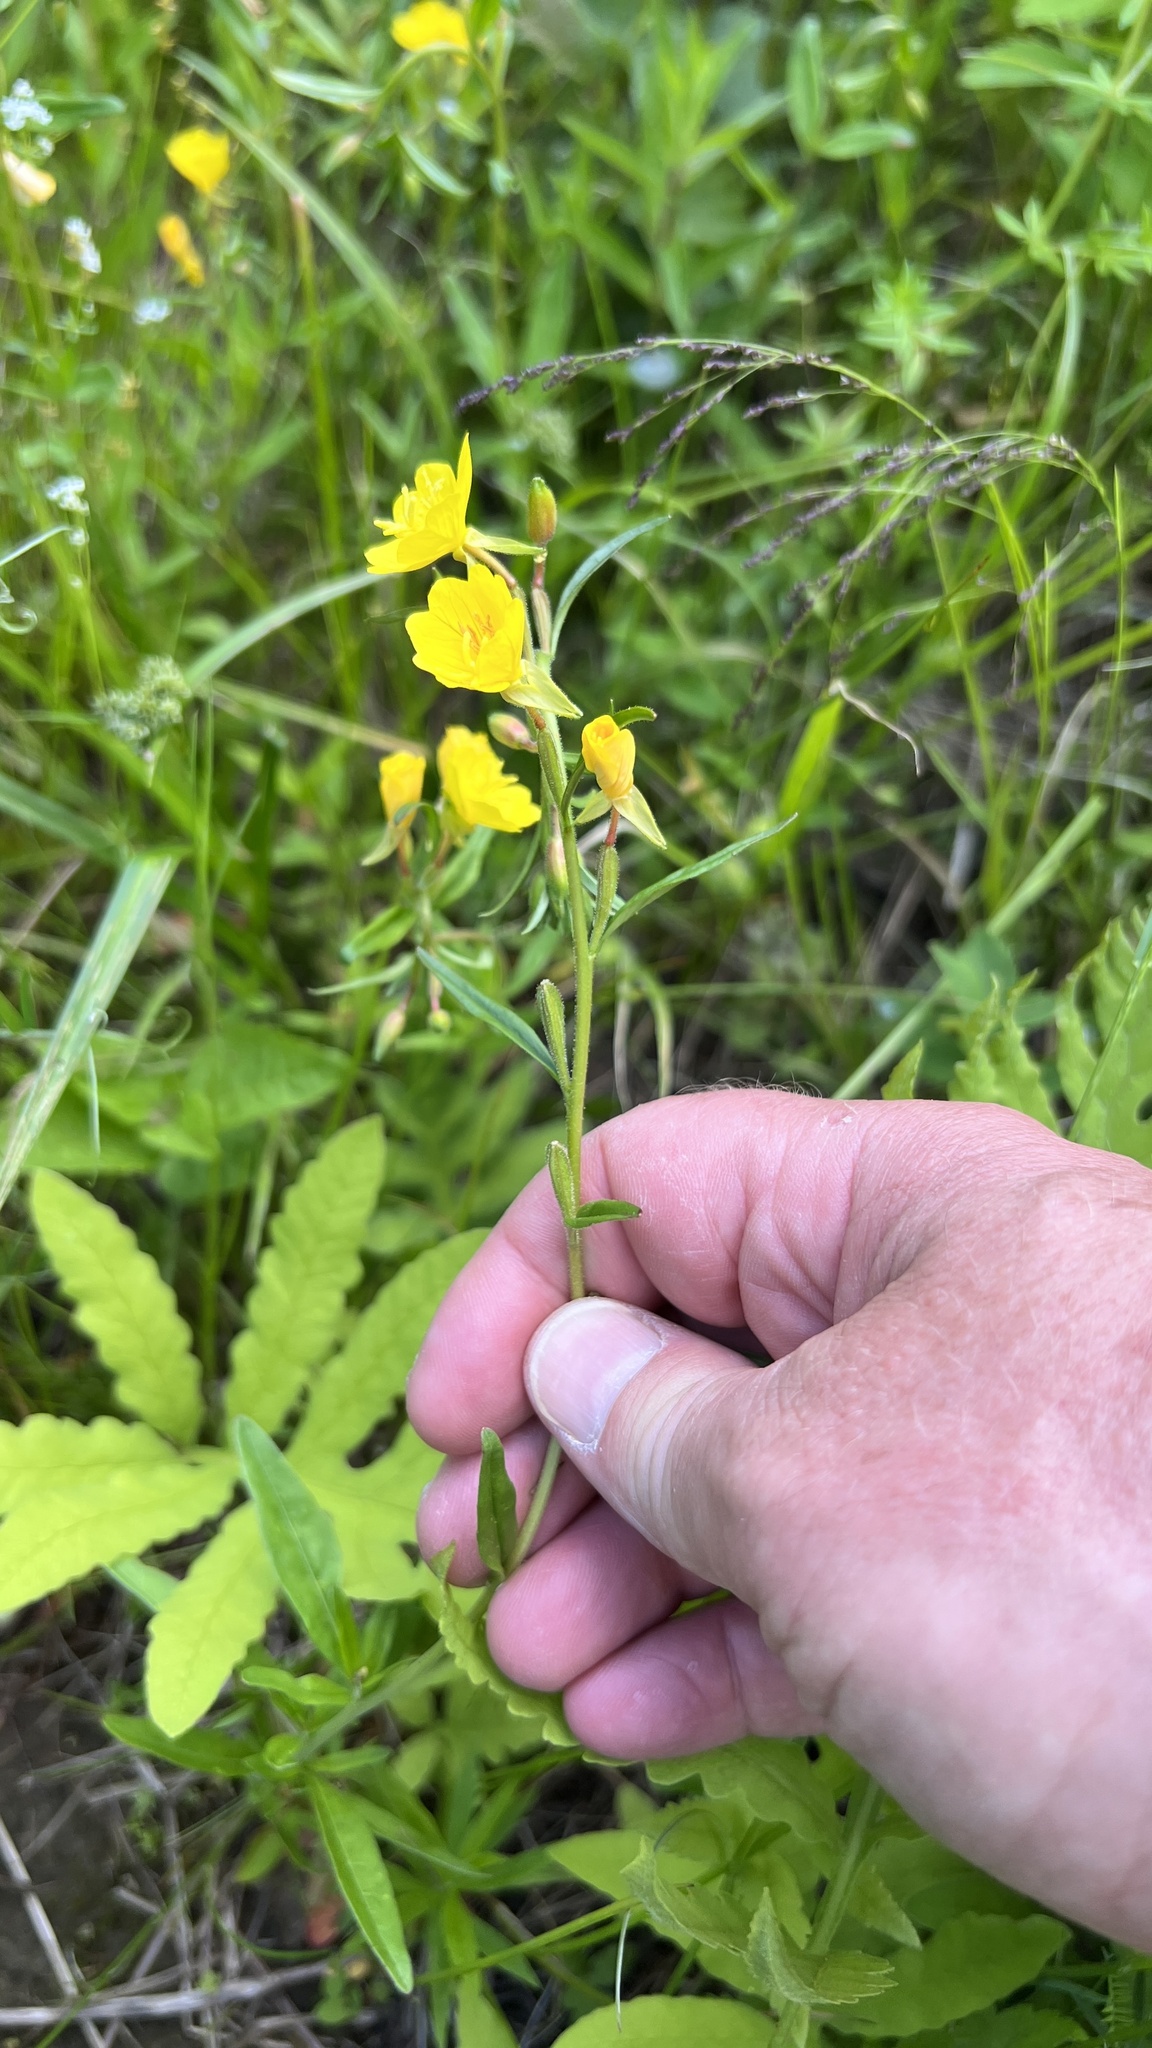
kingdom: Plantae
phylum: Tracheophyta
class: Magnoliopsida
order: Myrtales
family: Onagraceae
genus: Oenothera
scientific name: Oenothera perennis
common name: Small sundrops
